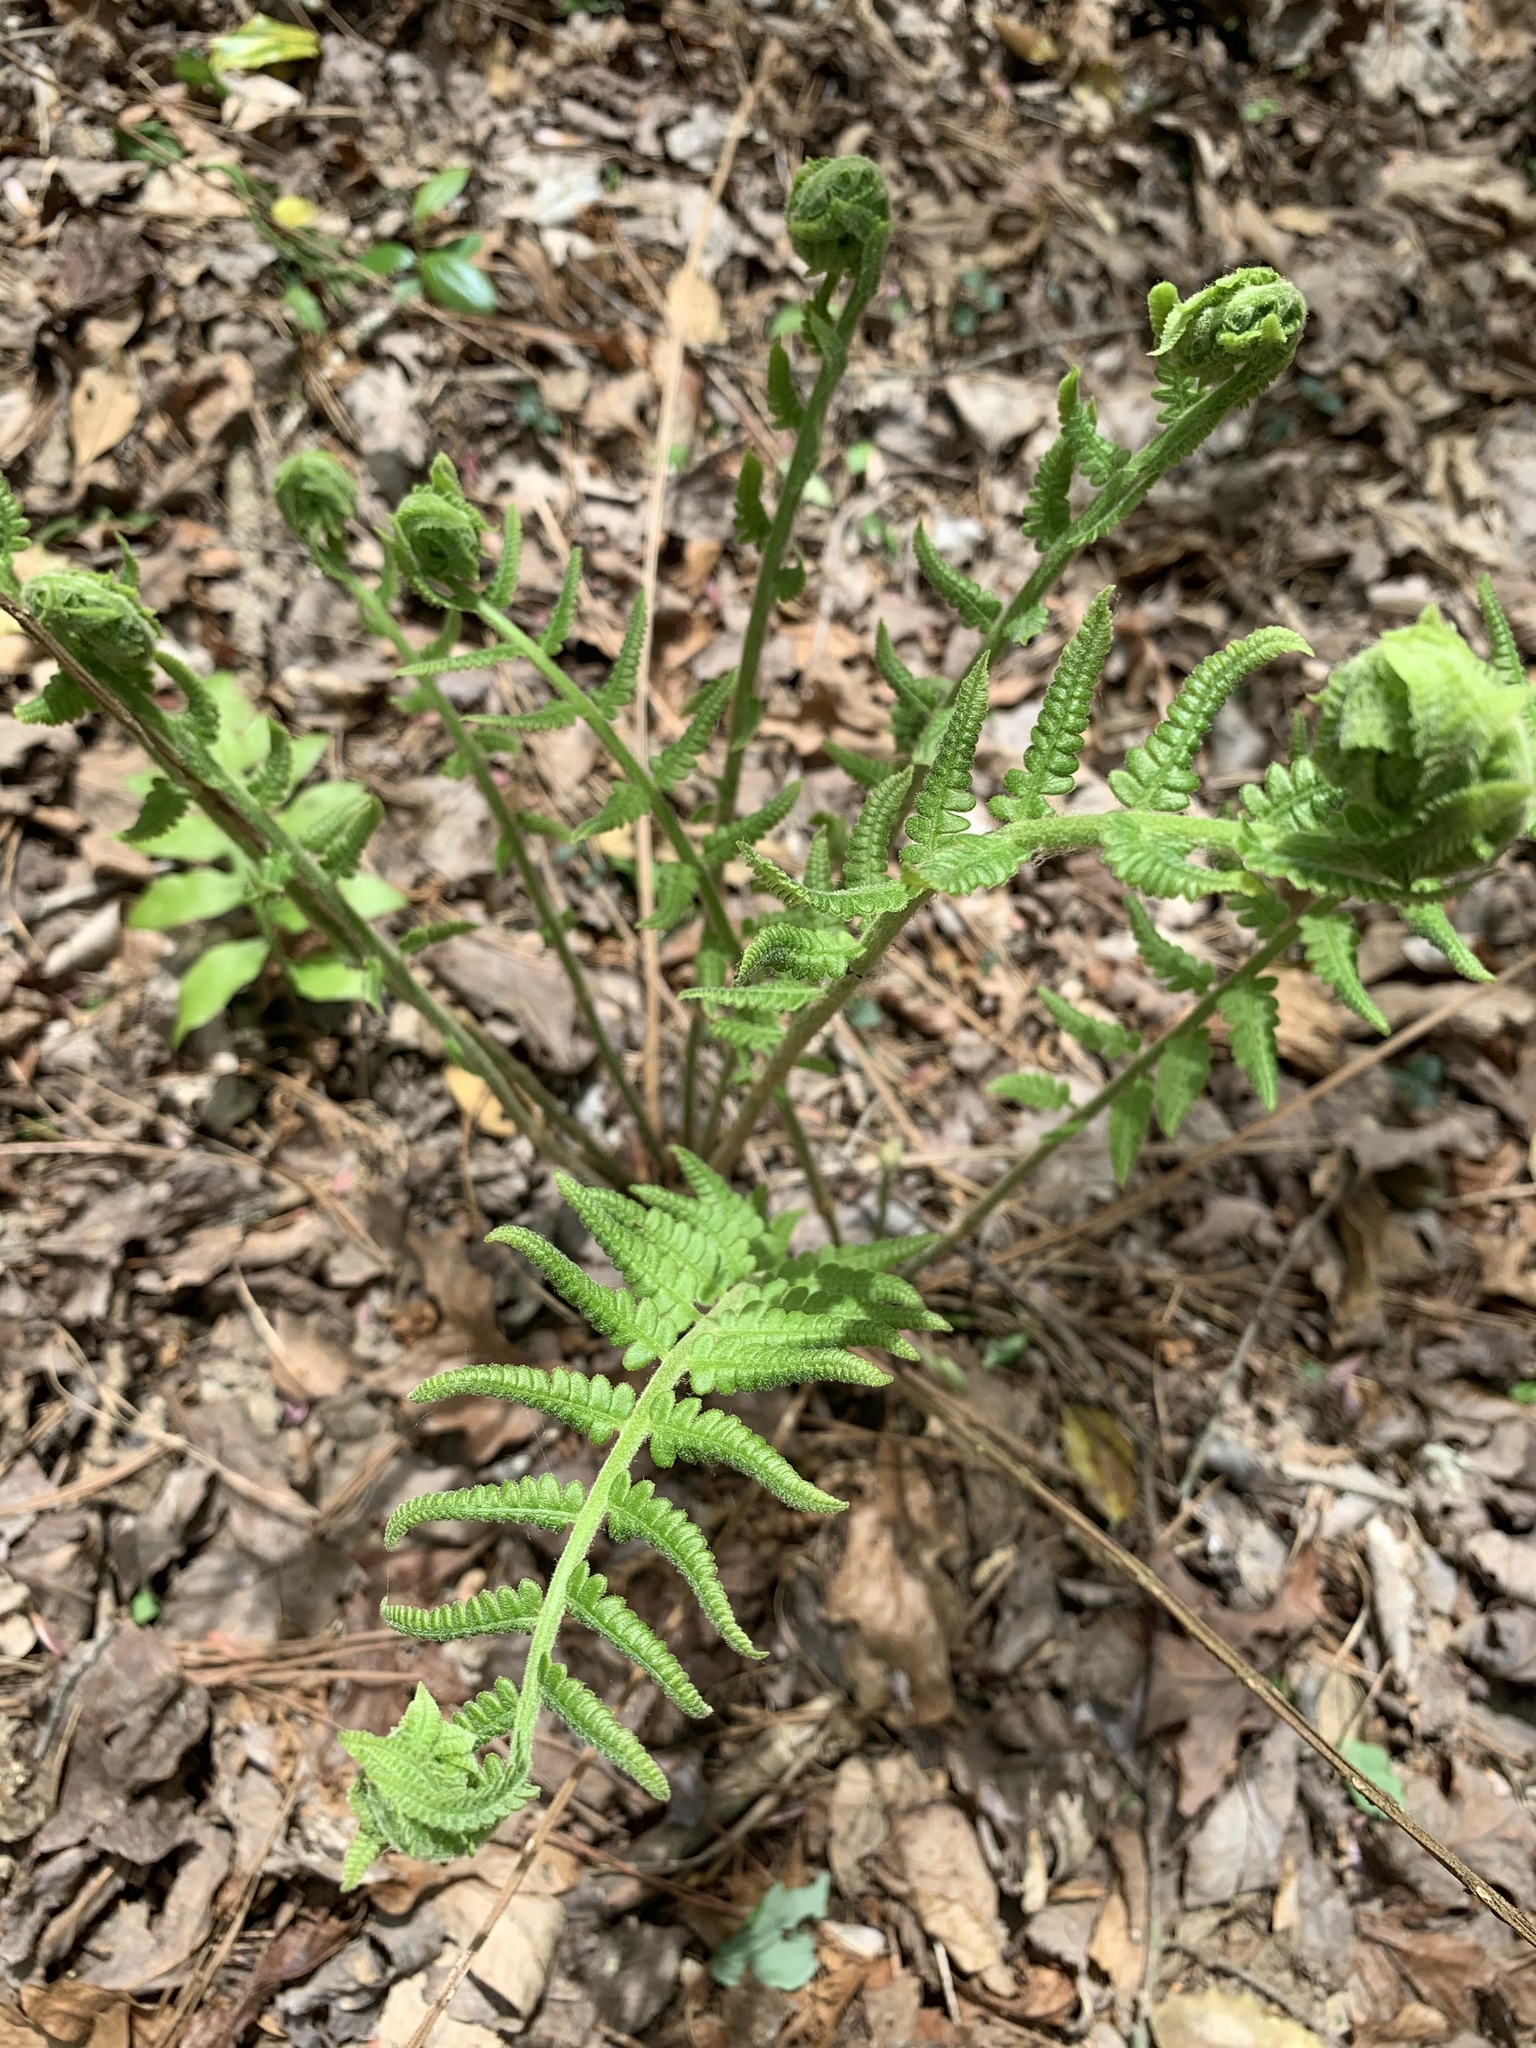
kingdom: Plantae
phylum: Tracheophyta
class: Polypodiopsida
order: Osmundales
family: Osmundaceae
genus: Osmundastrum
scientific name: Osmundastrum cinnamomeum
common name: Cinnamon fern
